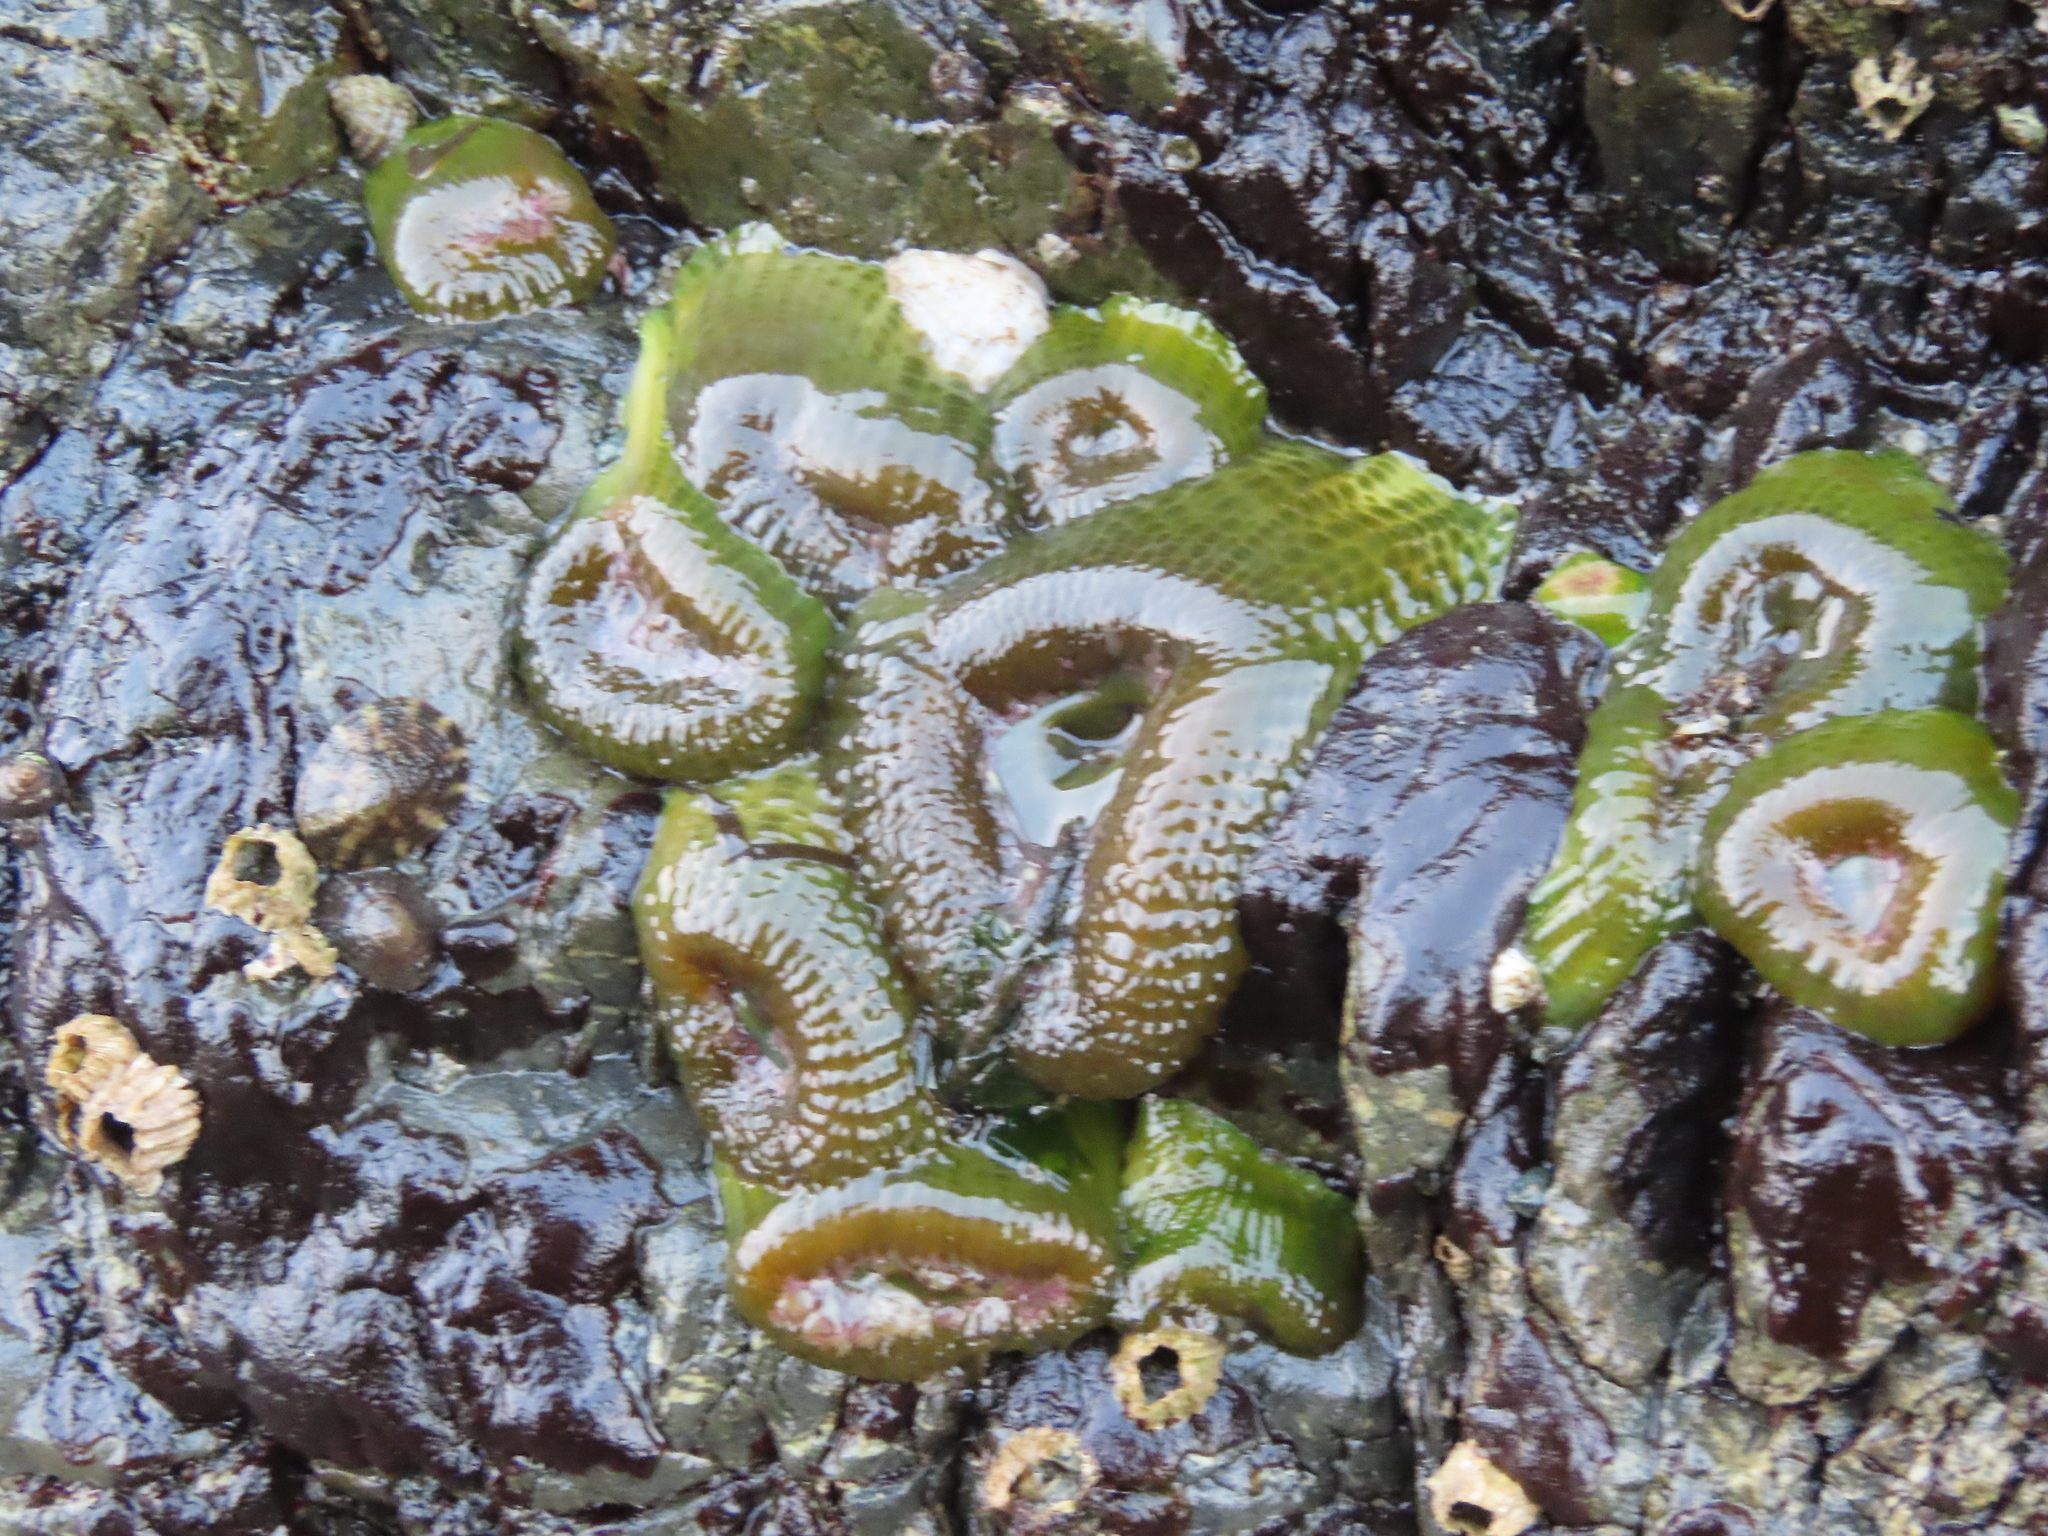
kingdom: Animalia
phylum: Cnidaria
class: Anthozoa
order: Actiniaria
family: Actiniidae
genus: Anthopleura
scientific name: Anthopleura elegantissima
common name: Clonal anemone
